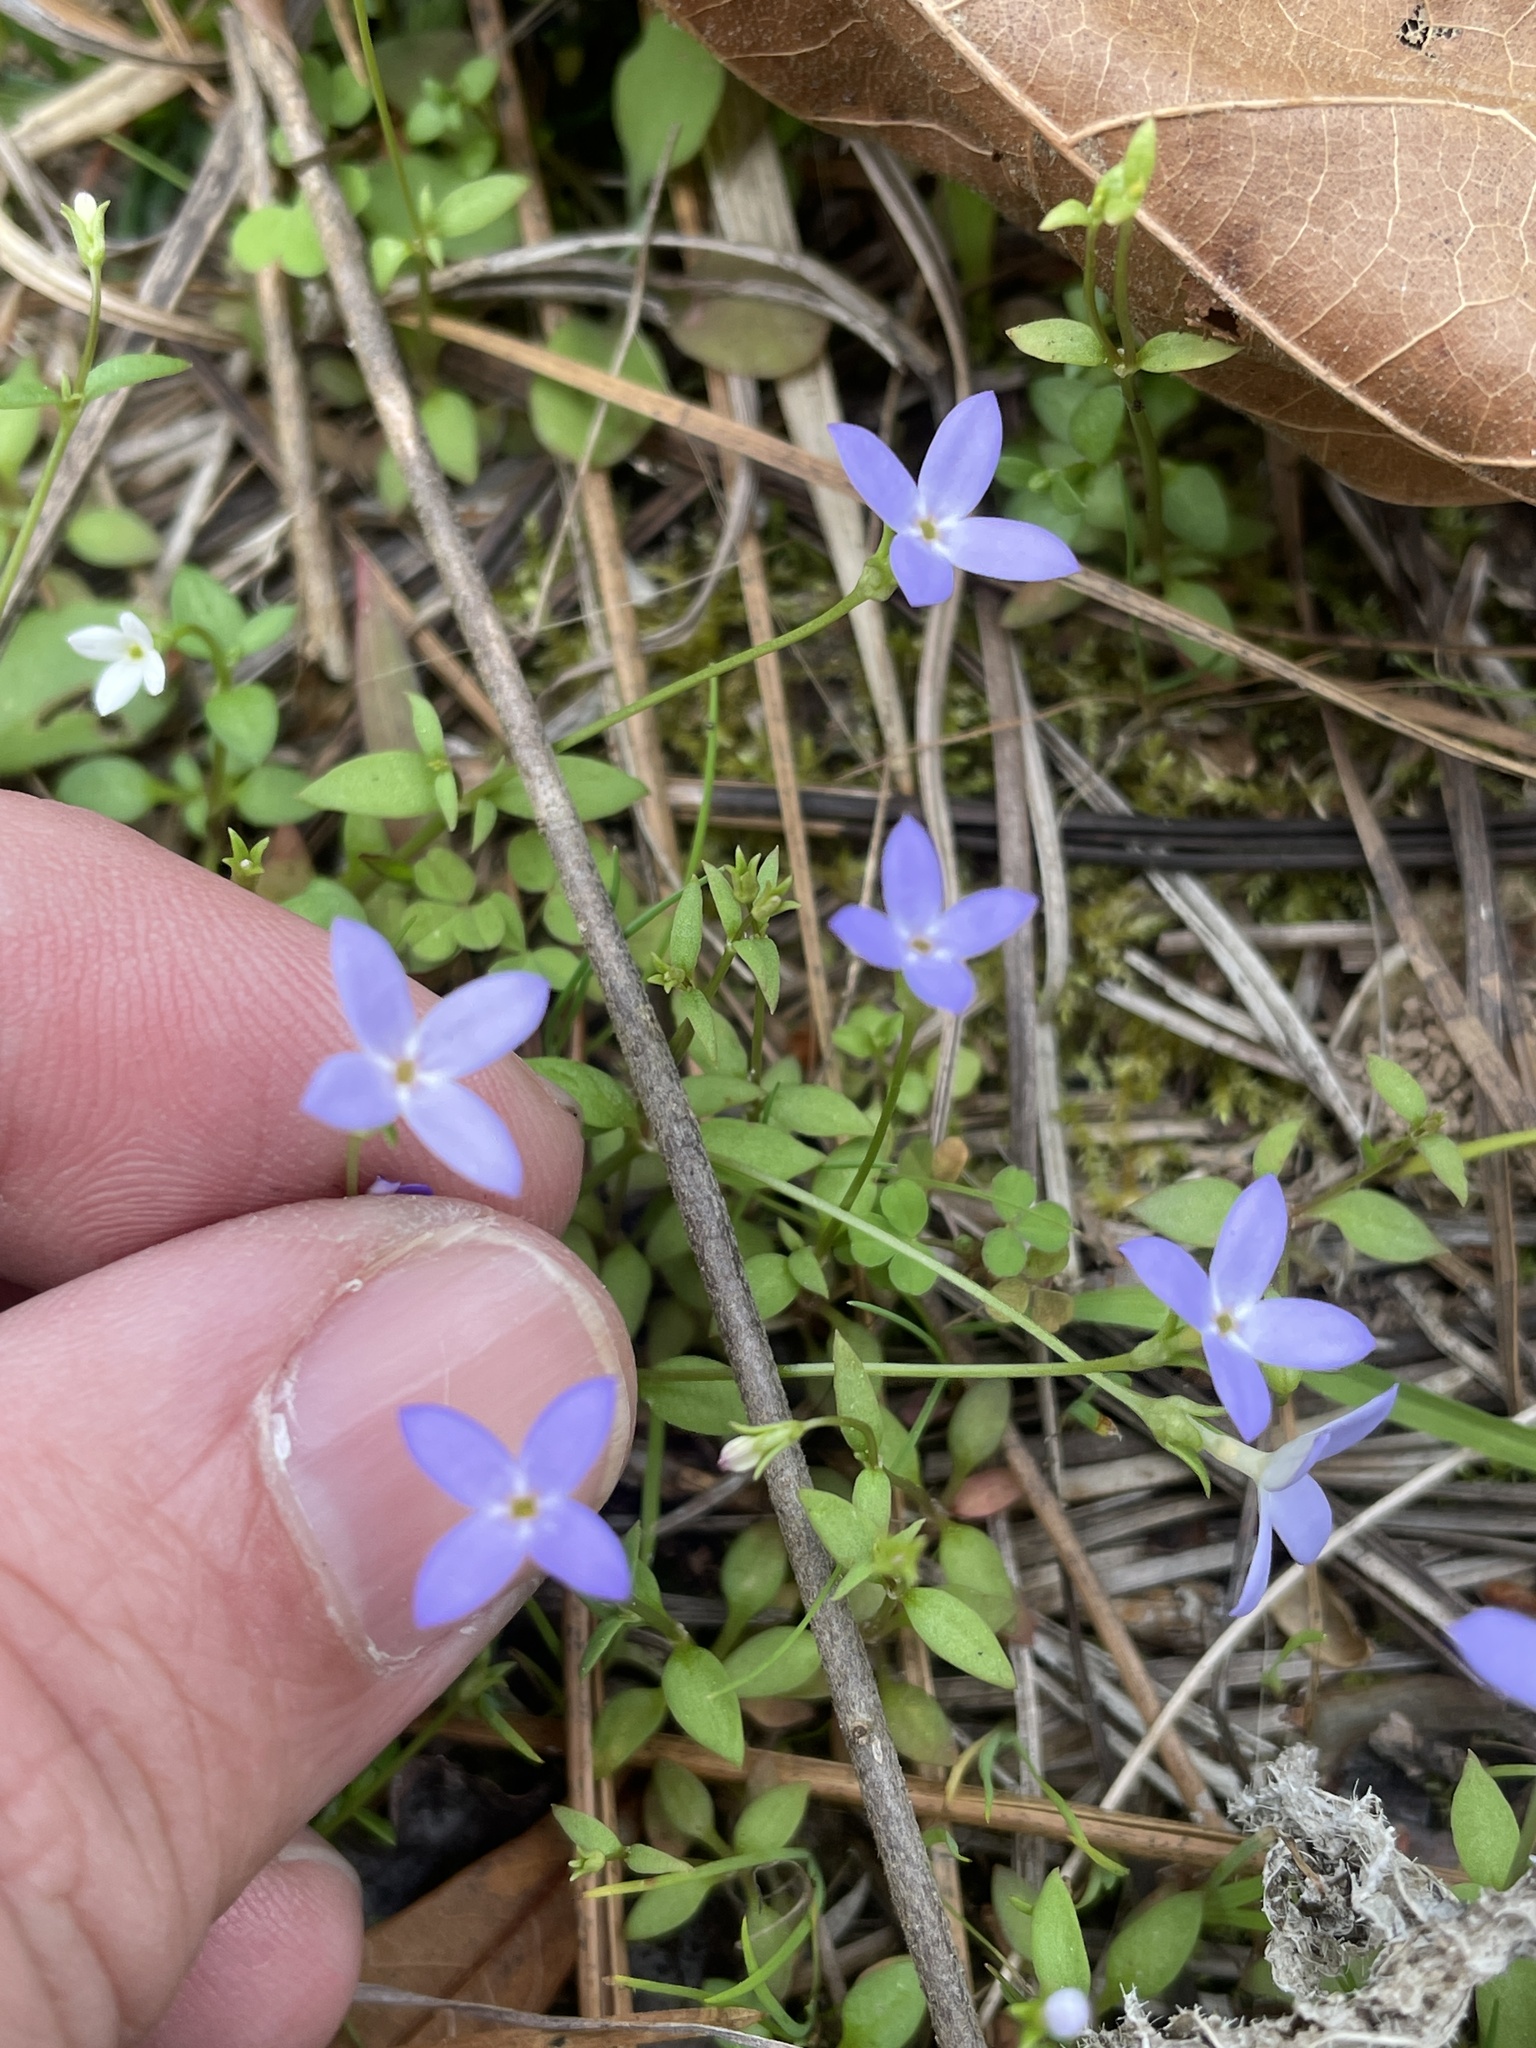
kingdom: Plantae
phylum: Tracheophyta
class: Magnoliopsida
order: Gentianales
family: Rubiaceae
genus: Houstonia
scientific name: Houstonia pusilla
